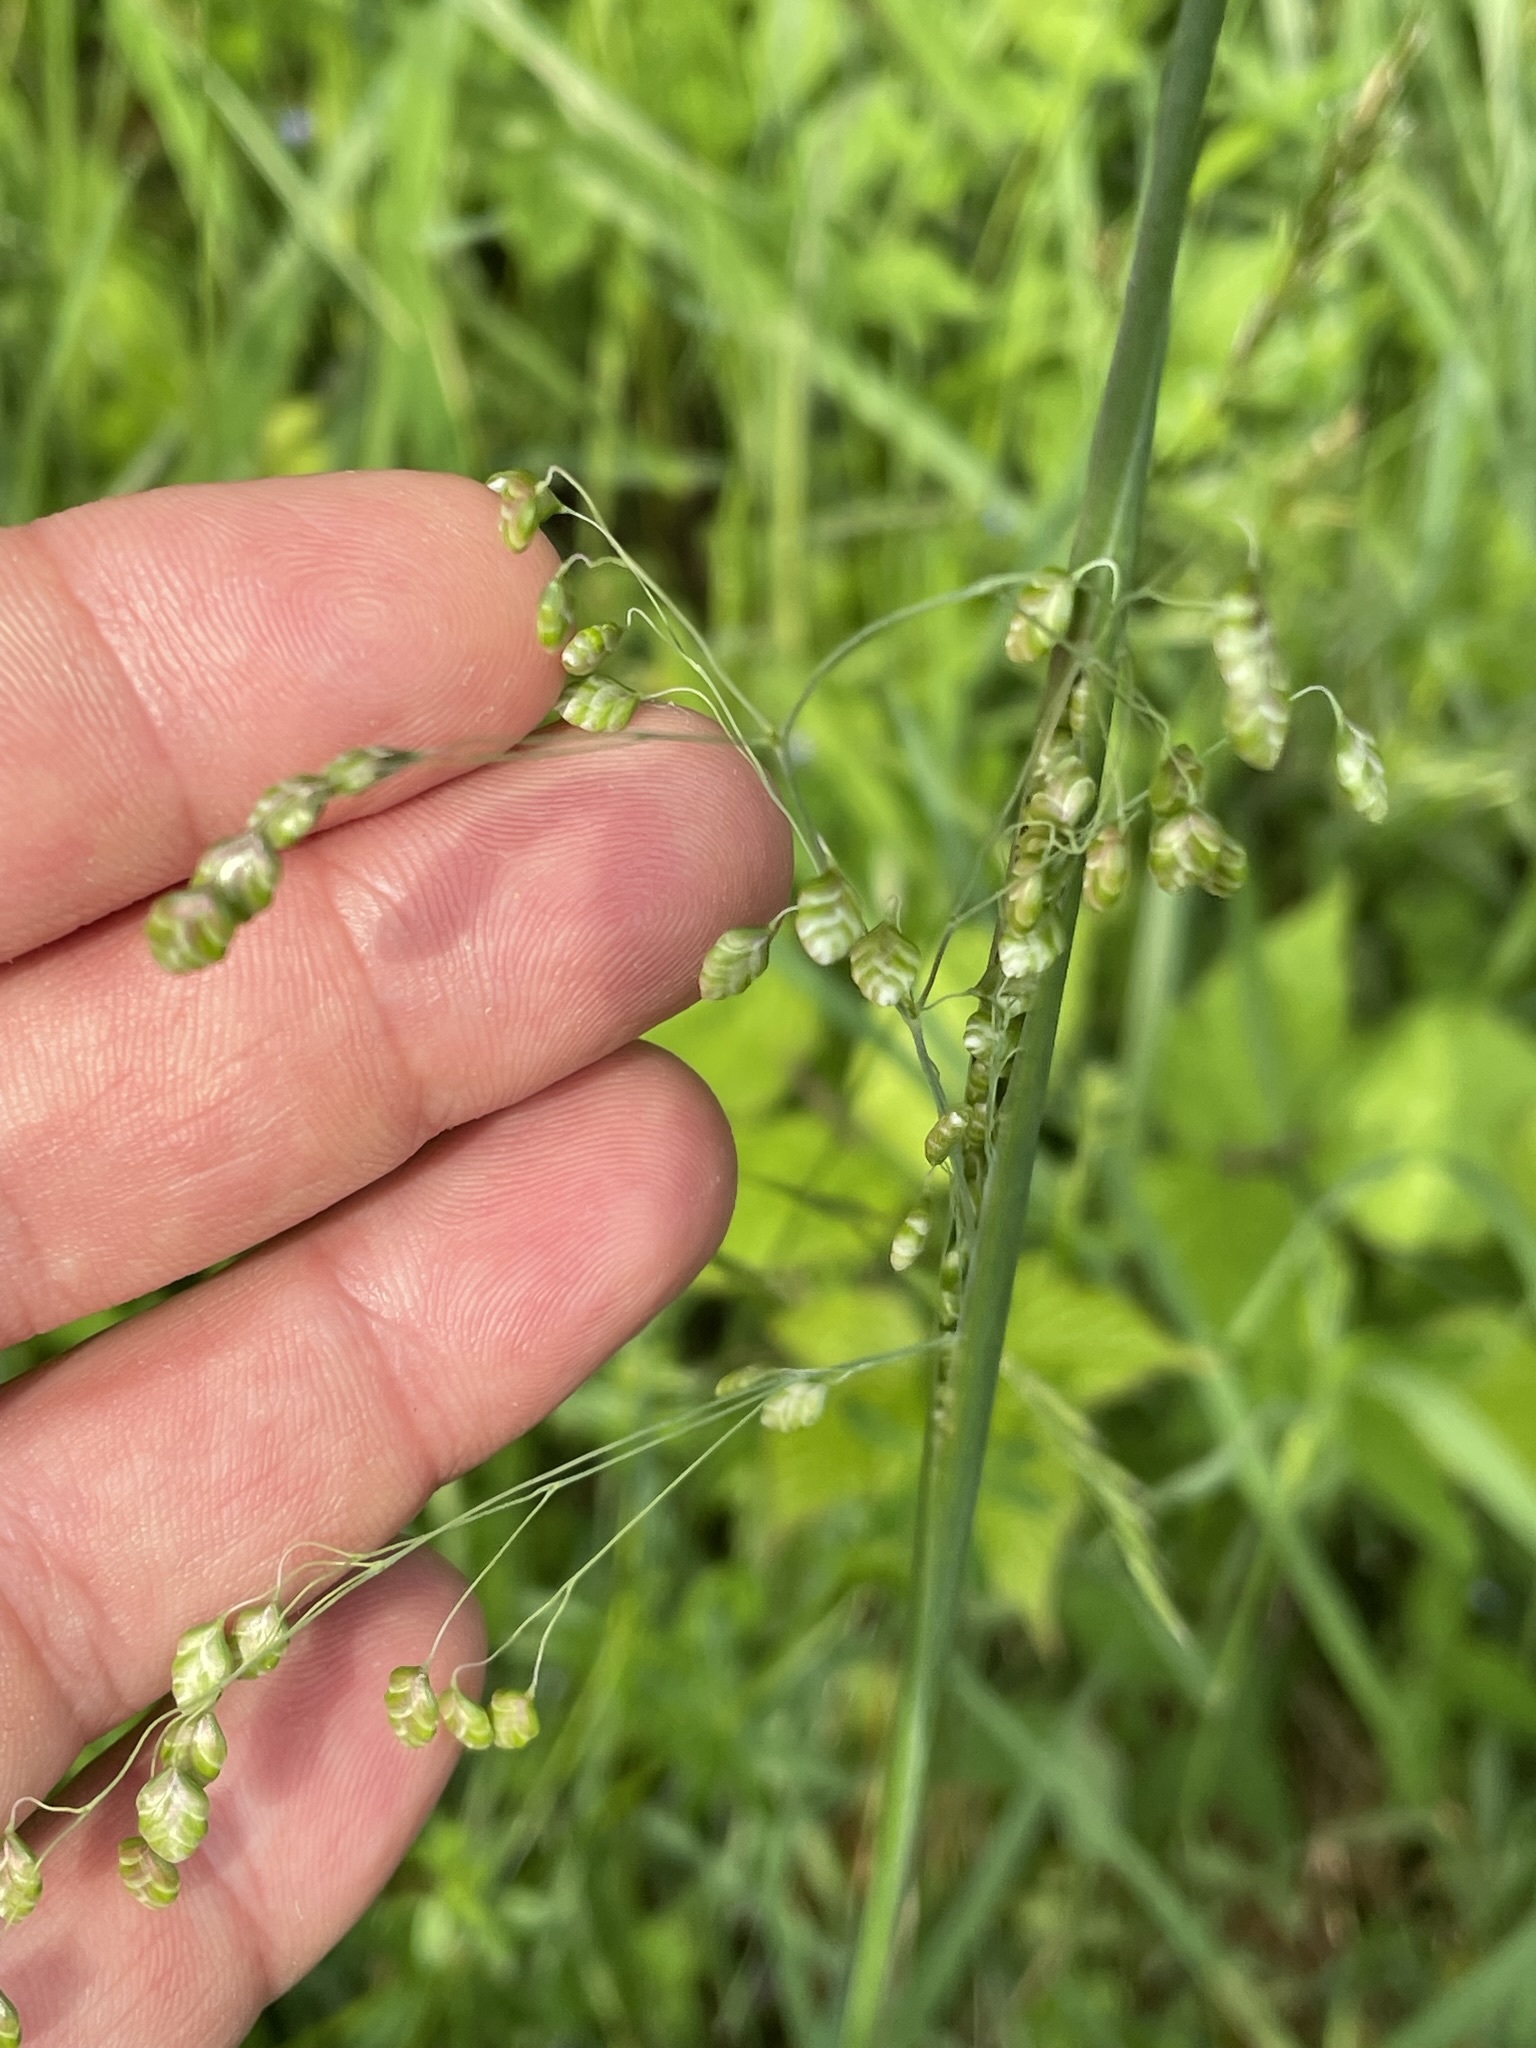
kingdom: Plantae
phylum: Tracheophyta
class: Liliopsida
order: Poales
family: Poaceae
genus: Briza
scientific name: Briza media
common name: Quaking grass
